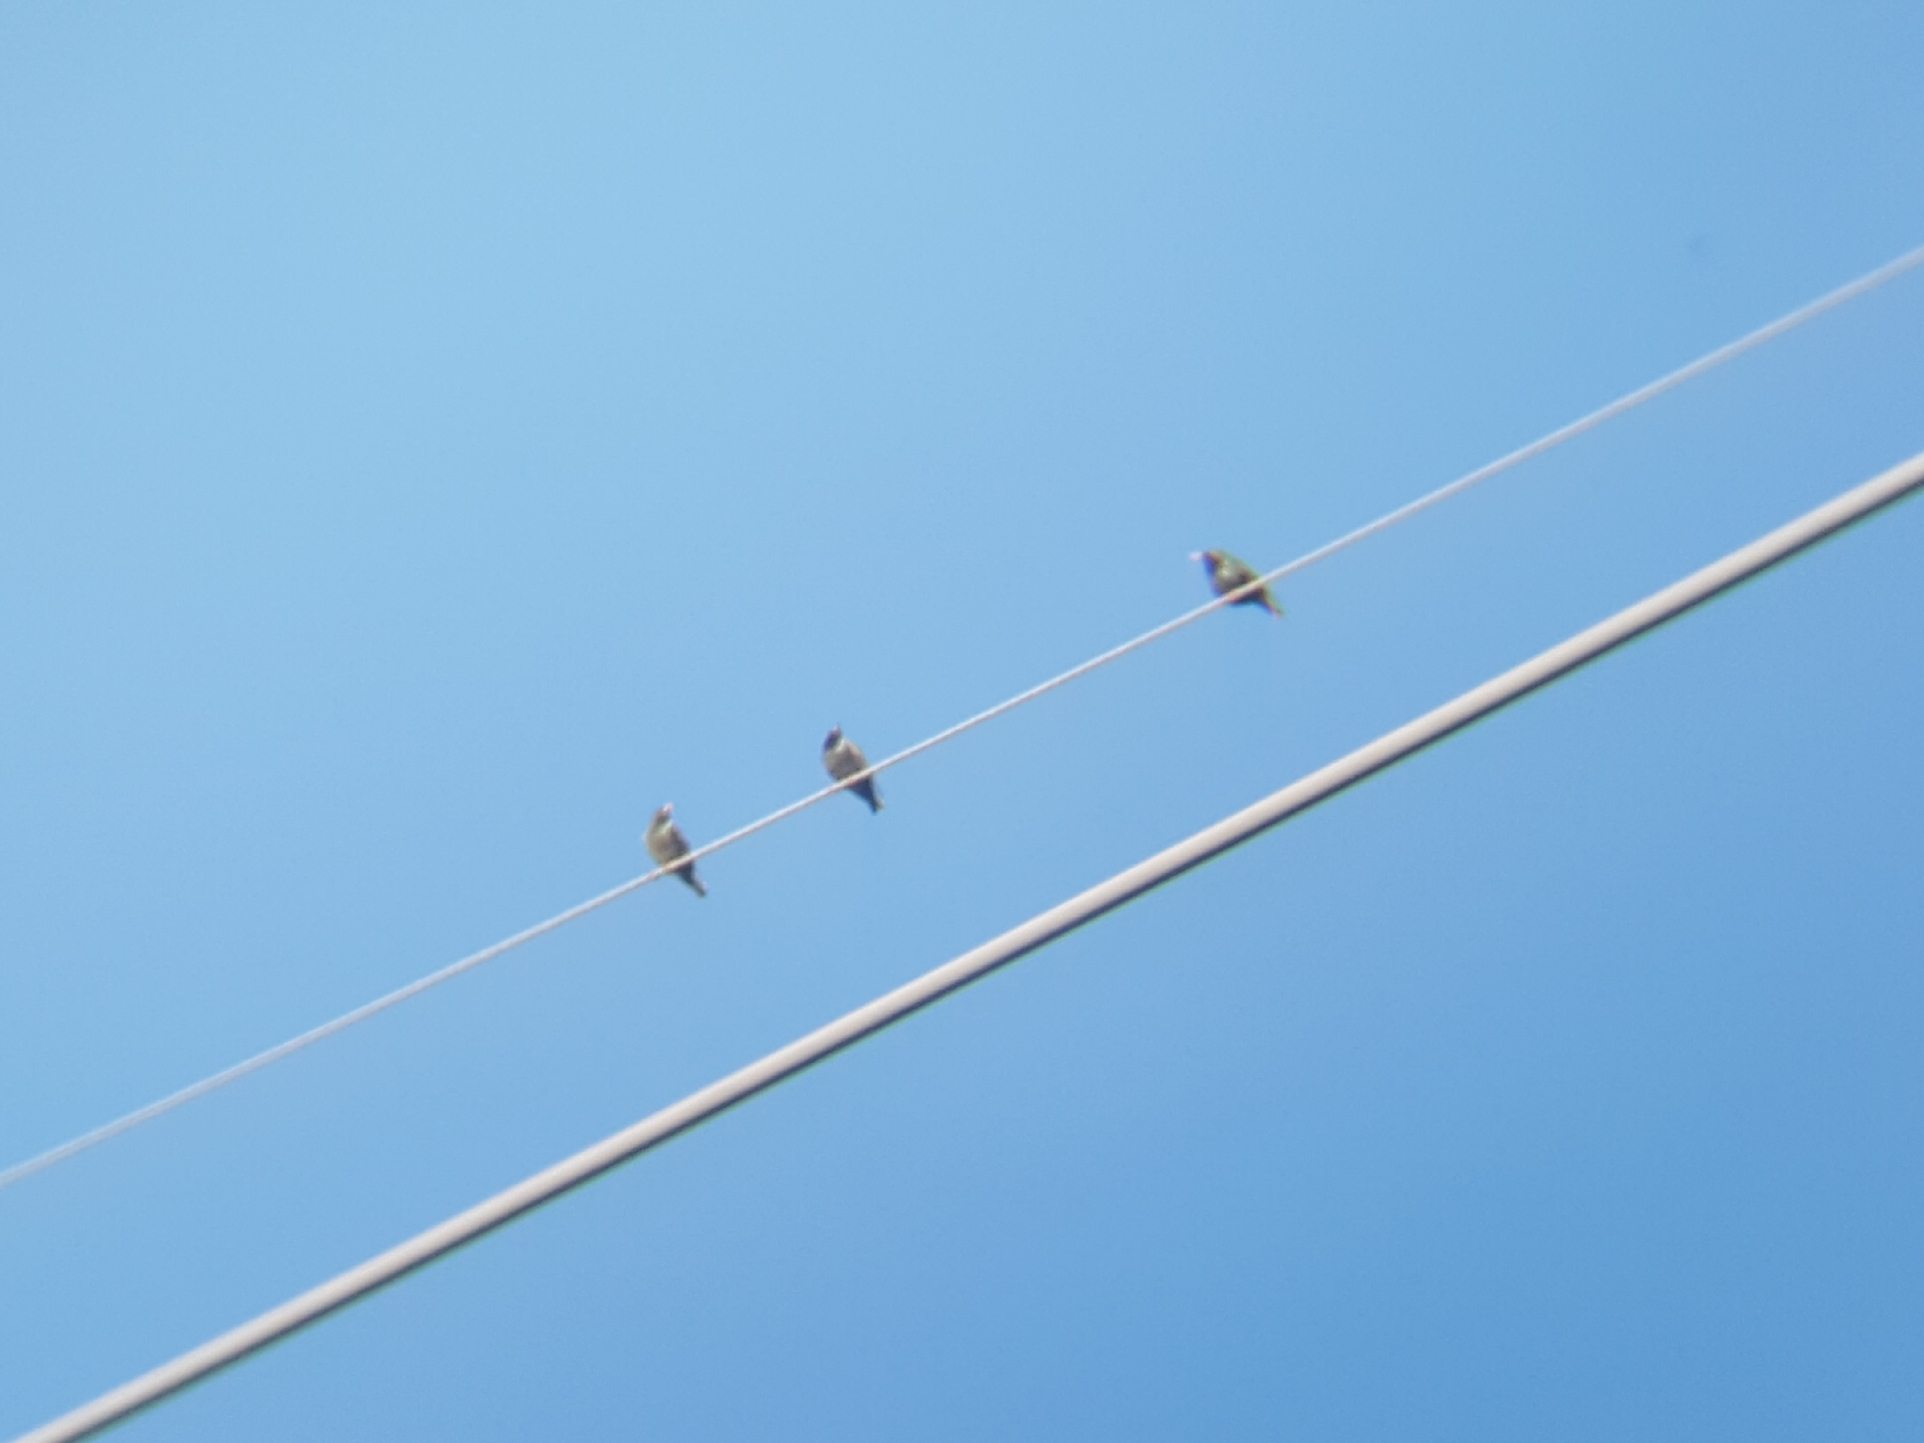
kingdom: Animalia
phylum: Chordata
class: Aves
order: Passeriformes
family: Sturnidae
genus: Sturnus
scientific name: Sturnus vulgaris
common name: Common starling
